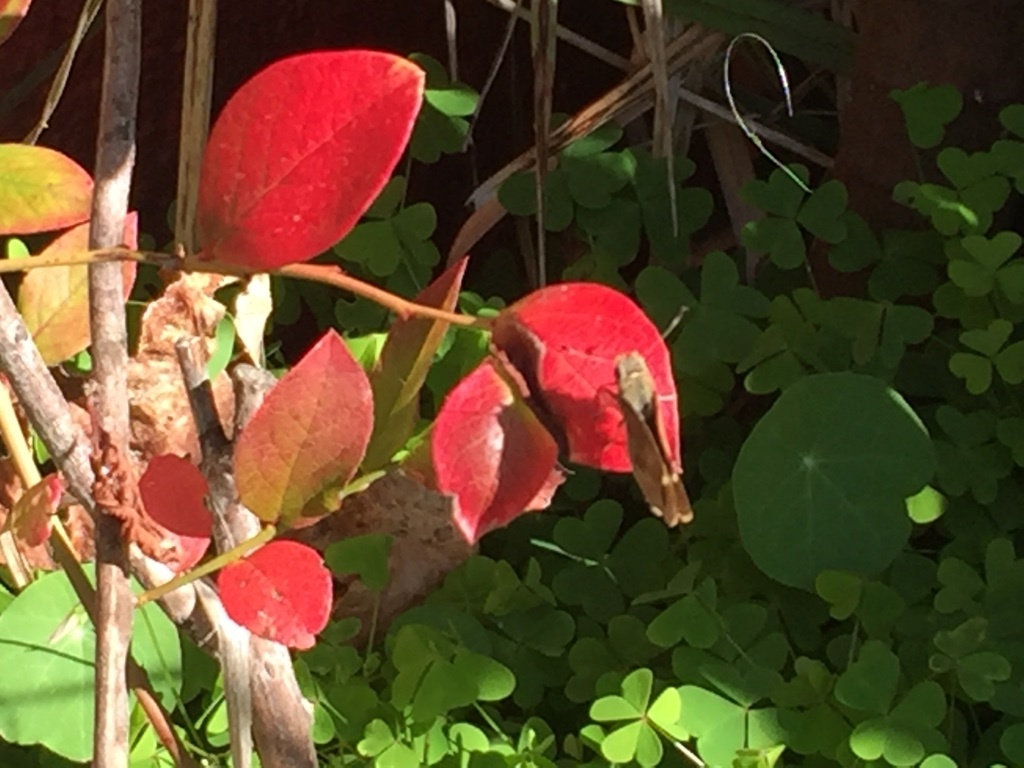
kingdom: Animalia
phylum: Arthropoda
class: Insecta
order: Lepidoptera
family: Hesperiidae
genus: Lon
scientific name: Lon melane
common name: Umber skipper
